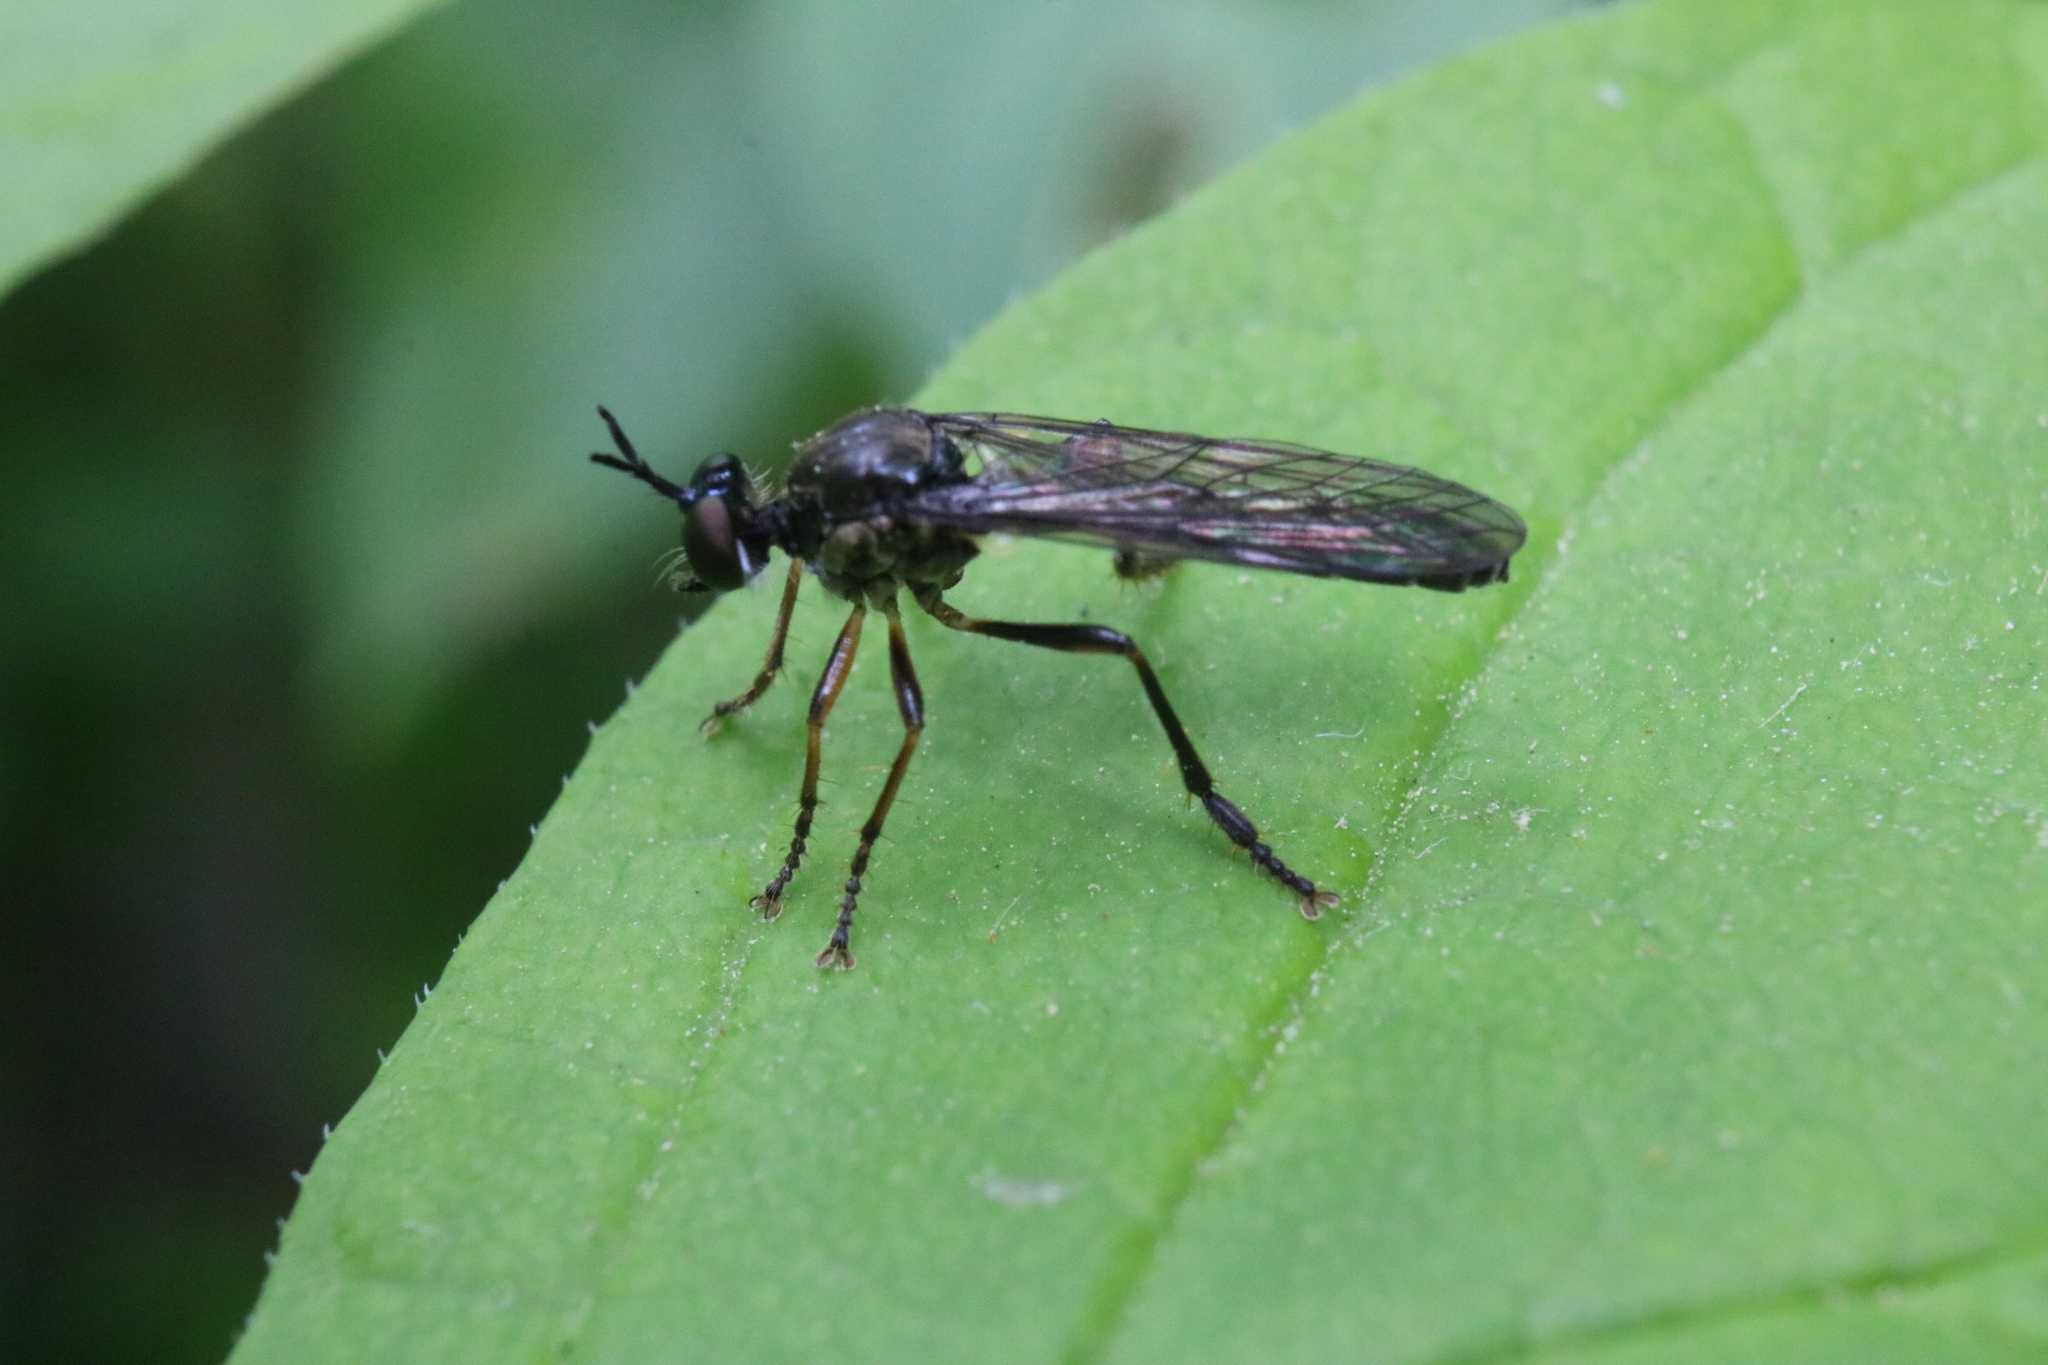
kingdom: Animalia
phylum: Arthropoda
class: Insecta
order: Diptera
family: Asilidae
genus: Dioctria
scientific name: Dioctria hyalipennis
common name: Stripe-legged robberfly
